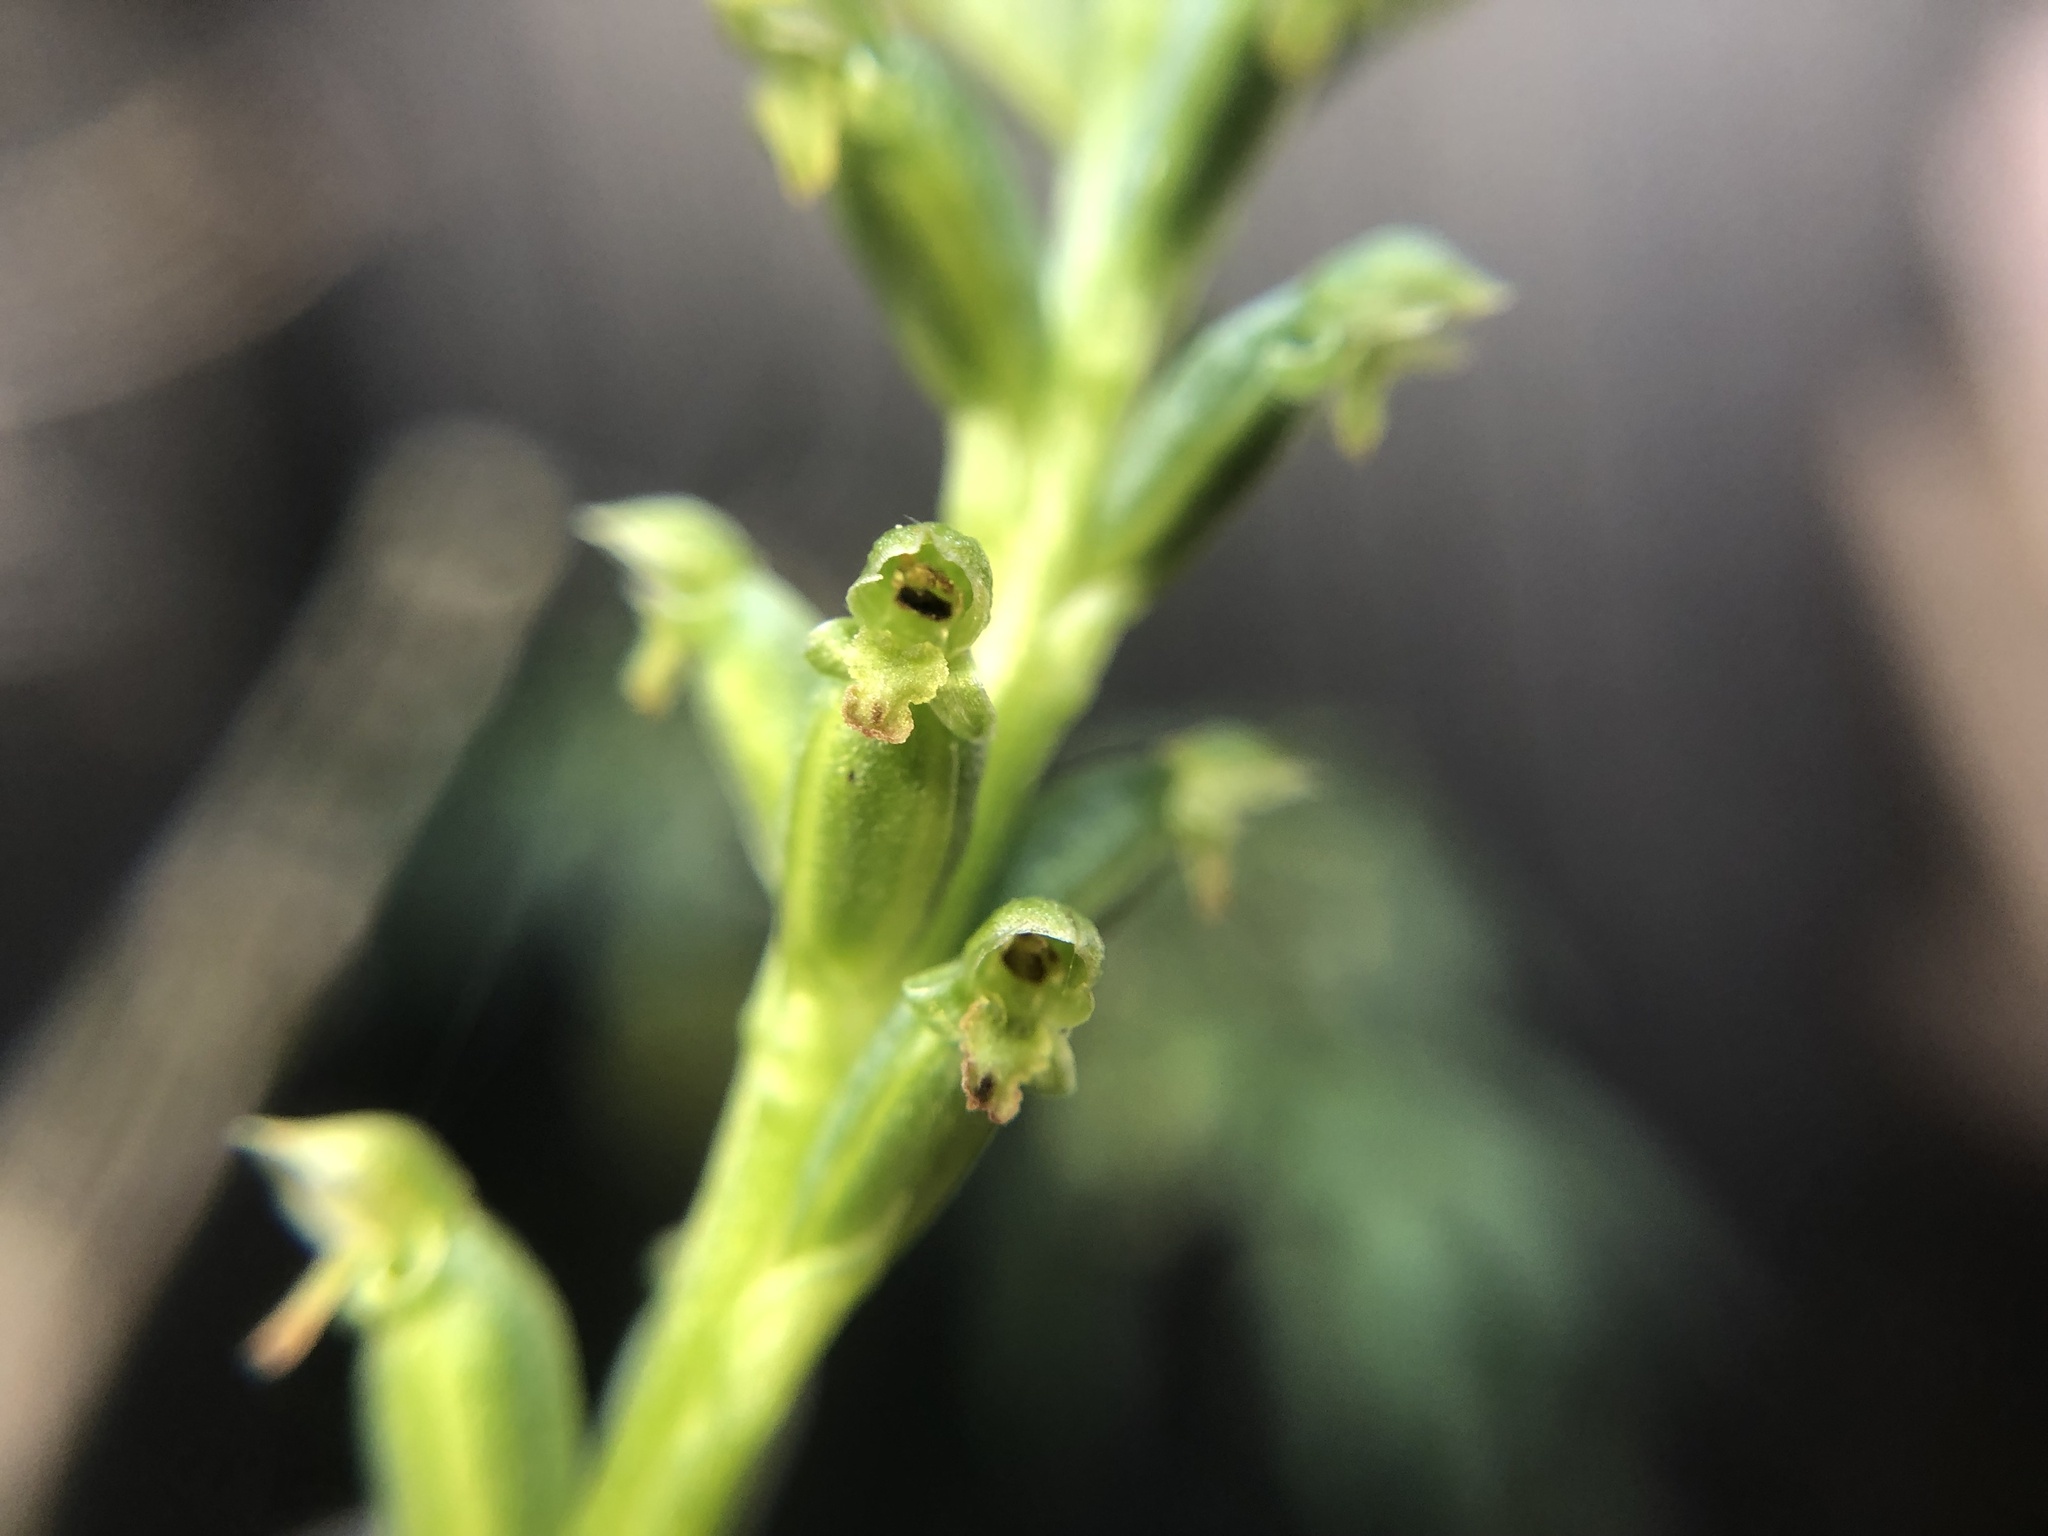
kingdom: Plantae
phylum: Tracheophyta
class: Liliopsida
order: Asparagales
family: Orchidaceae
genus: Microtis
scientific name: Microtis unifolia
